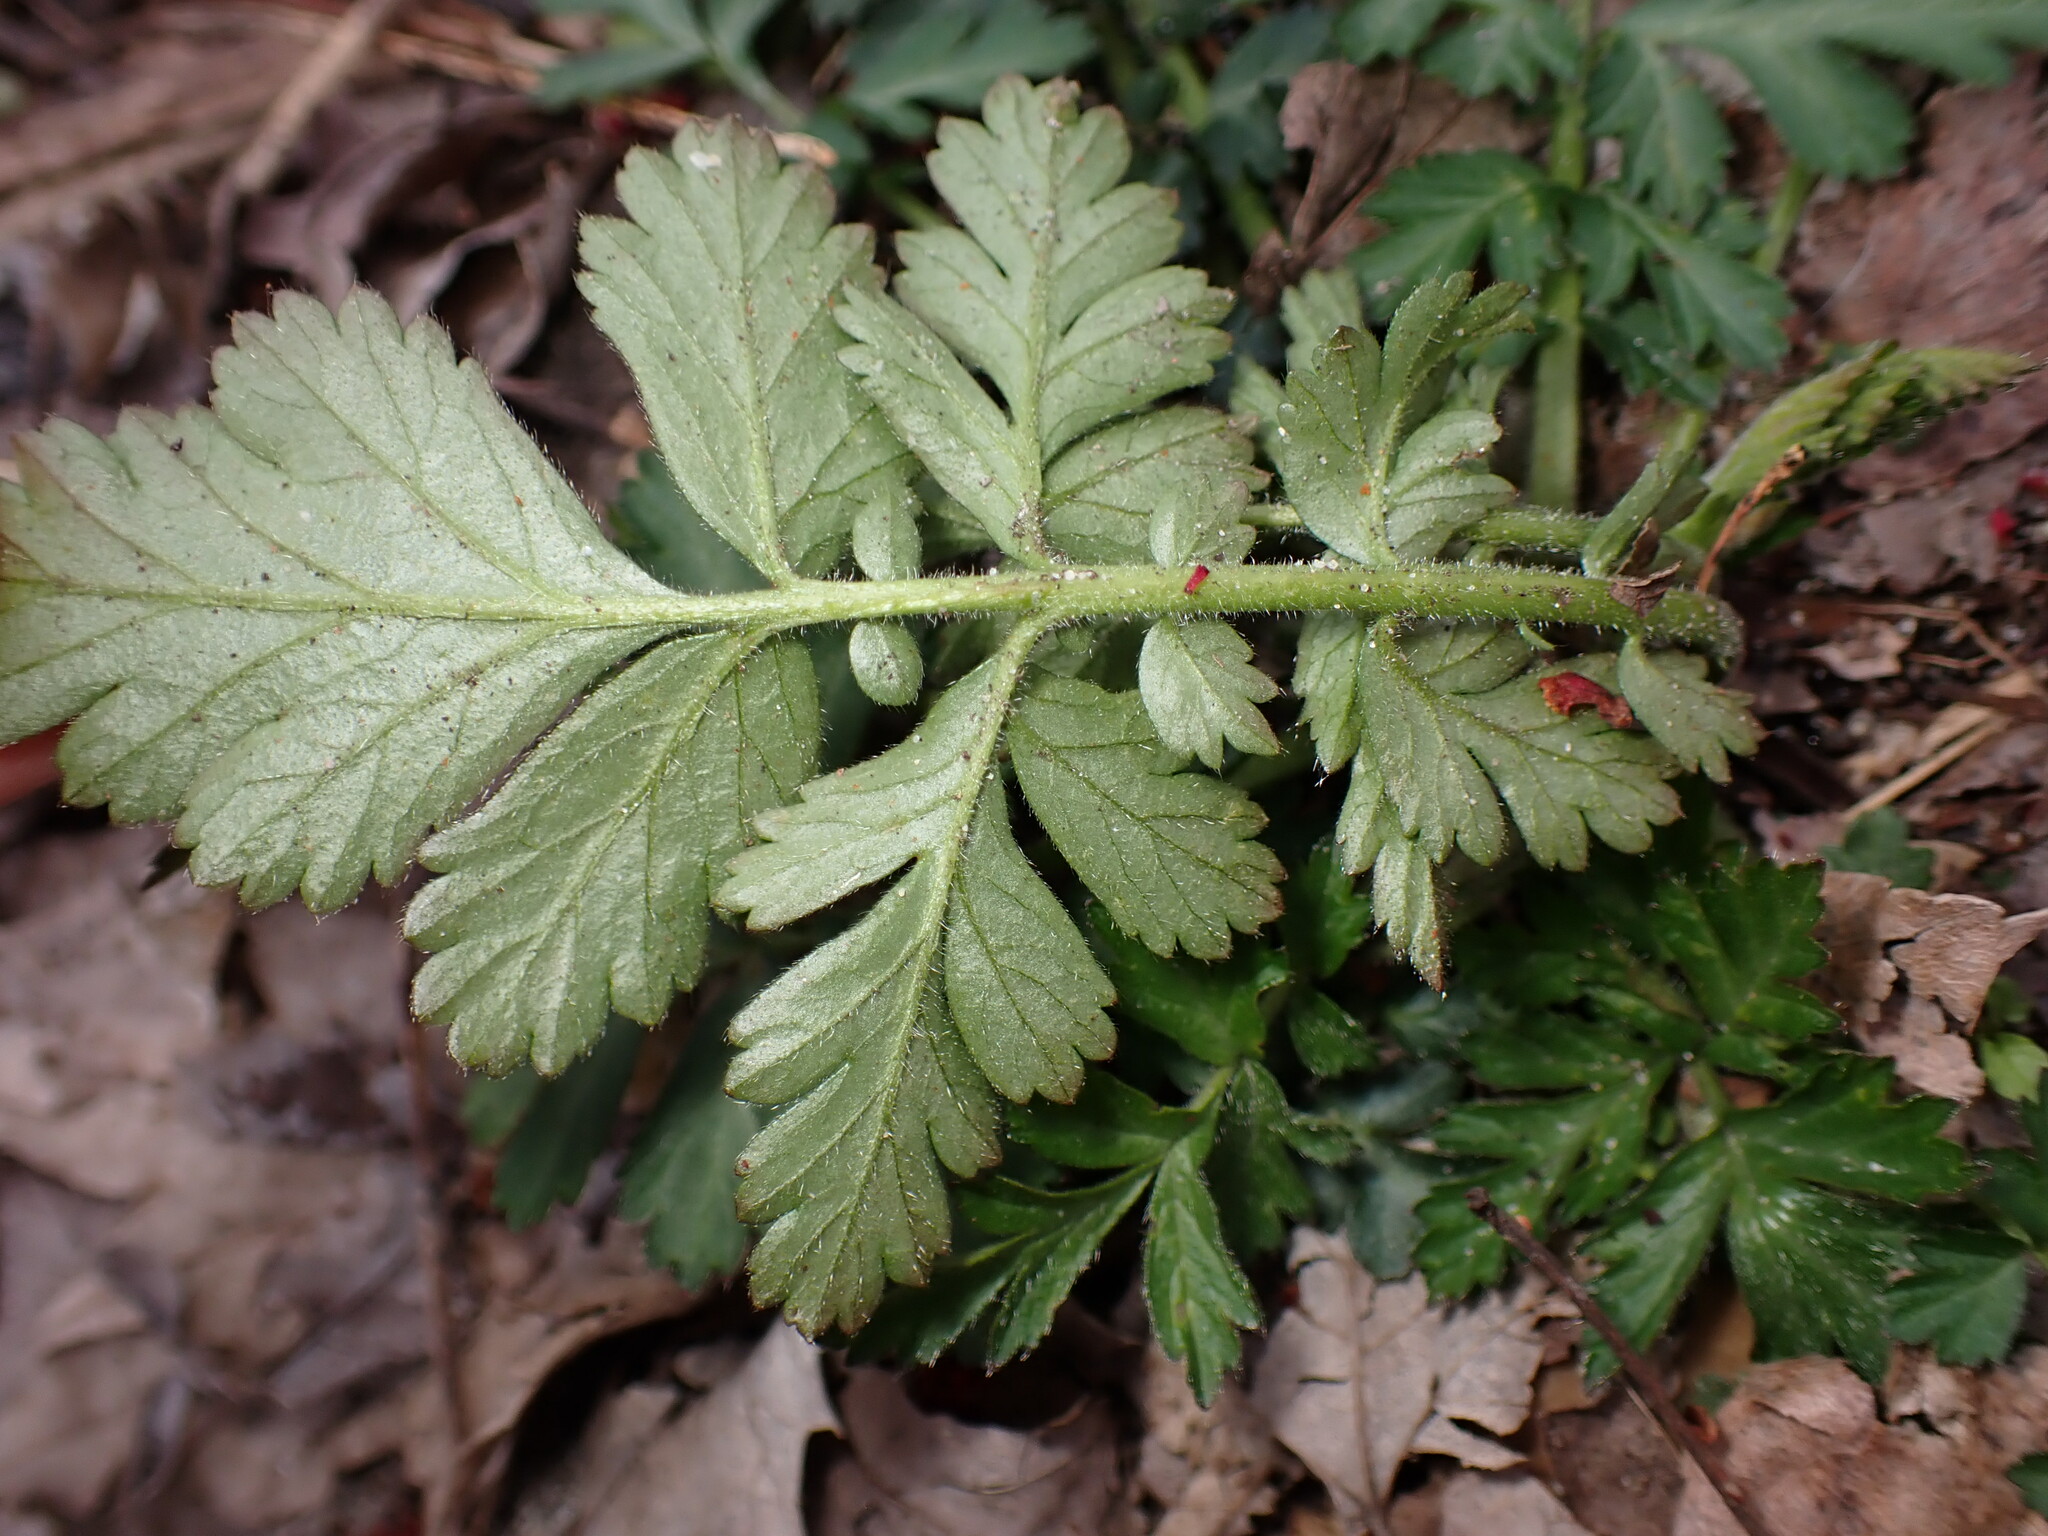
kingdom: Plantae
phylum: Tracheophyta
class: Magnoliopsida
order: Rosales
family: Rosaceae
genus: Geum
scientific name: Geum canadense
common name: White avens
